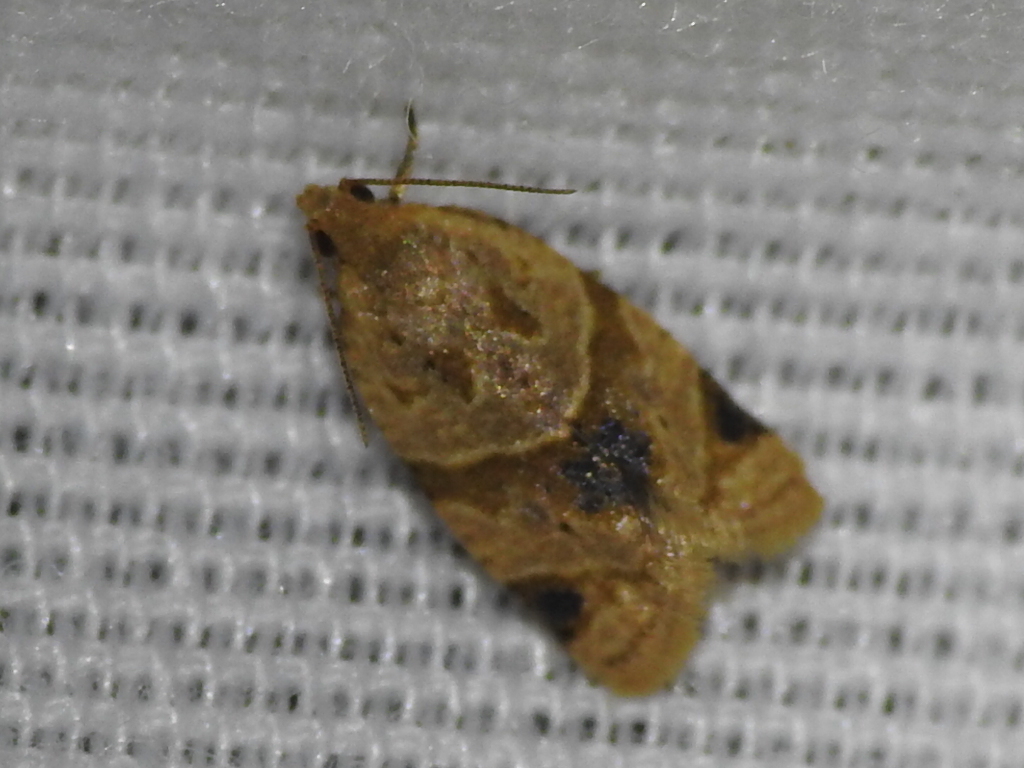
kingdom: Animalia
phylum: Arthropoda
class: Insecta
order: Lepidoptera
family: Tortricidae
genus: Clepsis
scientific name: Clepsis peritana
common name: Garden tortrix
